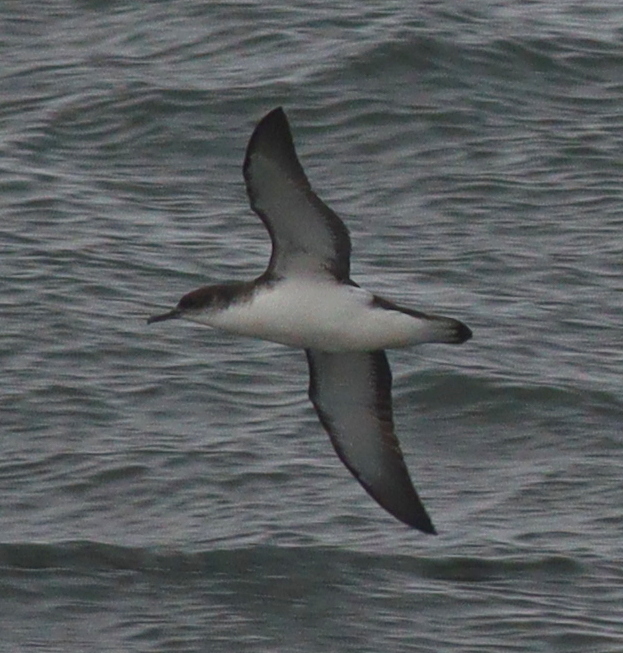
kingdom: Animalia
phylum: Chordata
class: Aves
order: Procellariiformes
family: Procellariidae
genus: Puffinus
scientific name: Puffinus puffinus
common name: Manx shearwater
